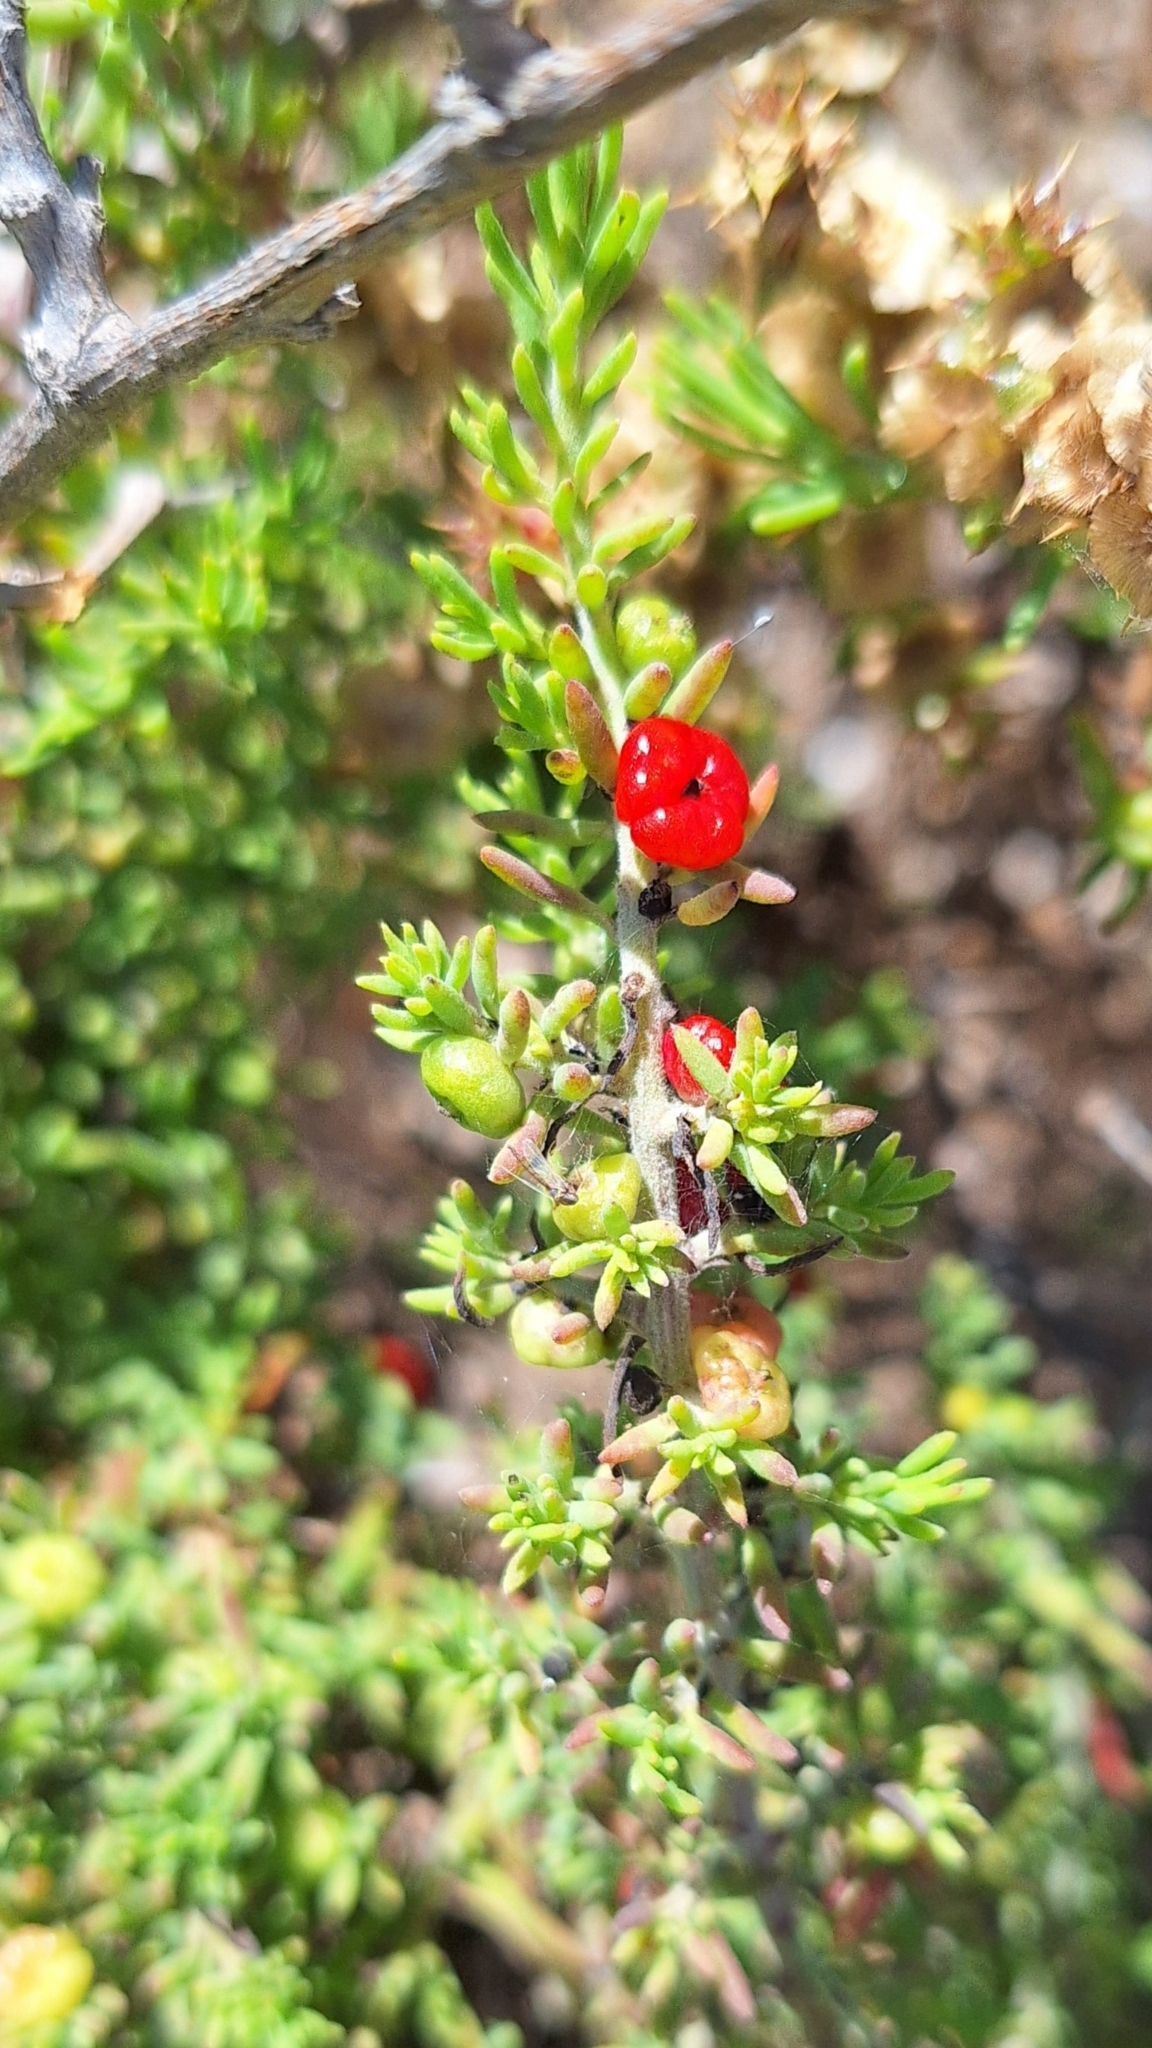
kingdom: Plantae
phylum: Tracheophyta
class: Magnoliopsida
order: Caryophyllales
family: Amaranthaceae
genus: Enchylaena
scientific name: Enchylaena tomentosa
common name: Ruby saltbush
